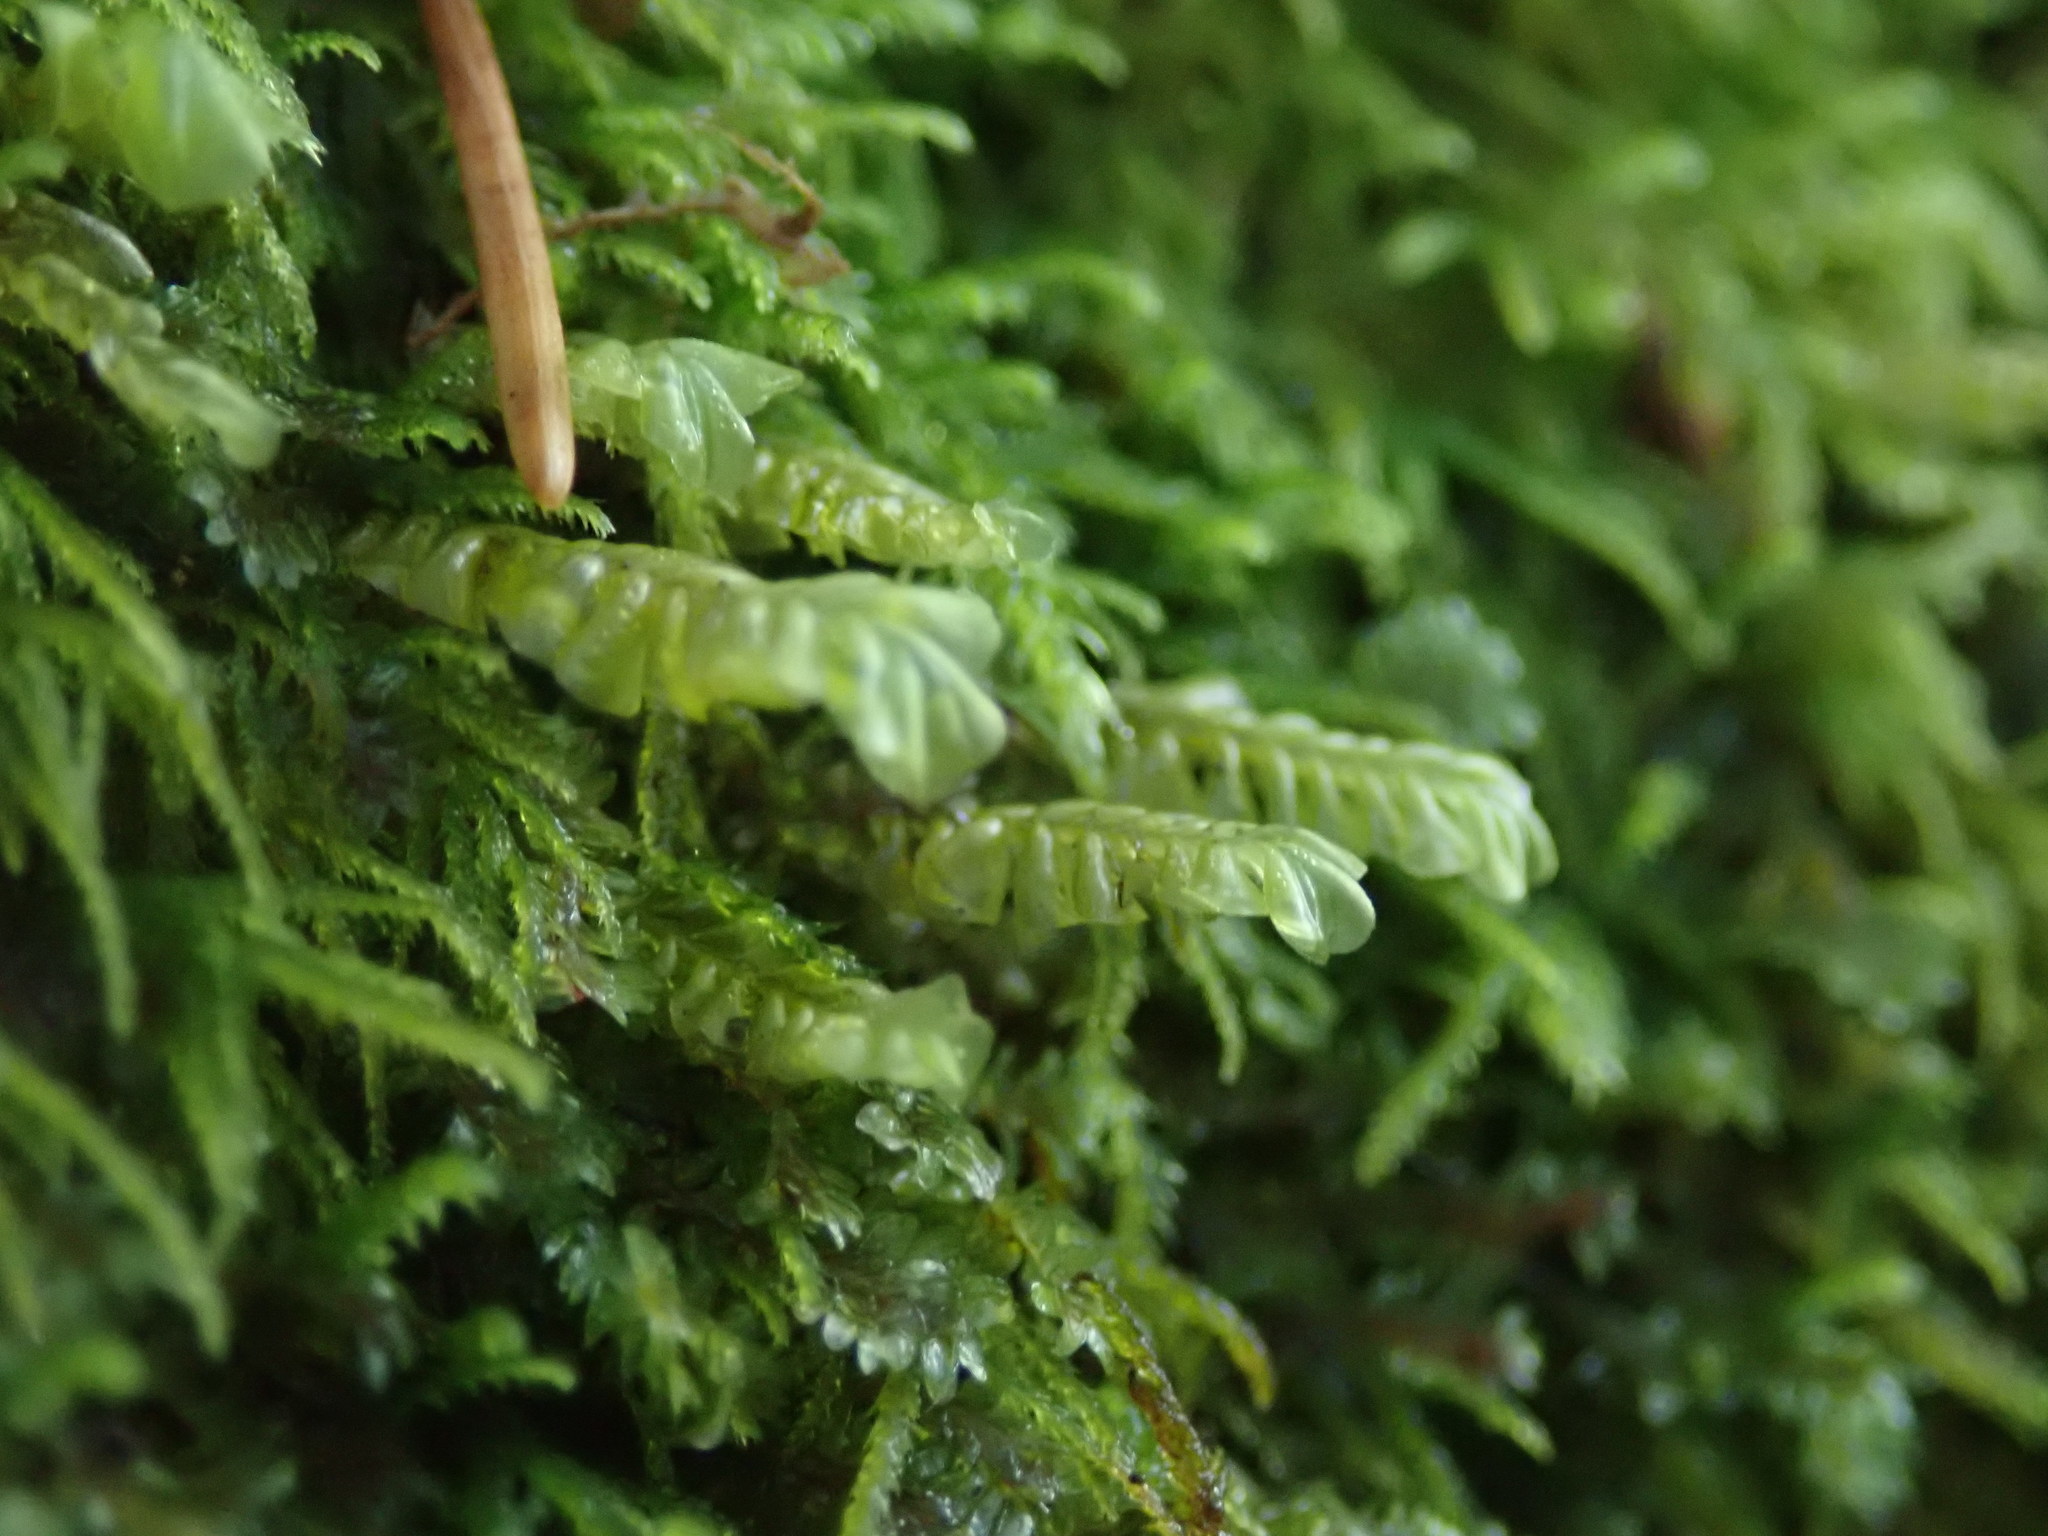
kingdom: Plantae
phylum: Marchantiophyta
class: Jungermanniopsida
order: Jungermanniales
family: Plagiochilaceae
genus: Plagiochila
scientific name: Plagiochila porelloides
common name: Lesser featherwort
